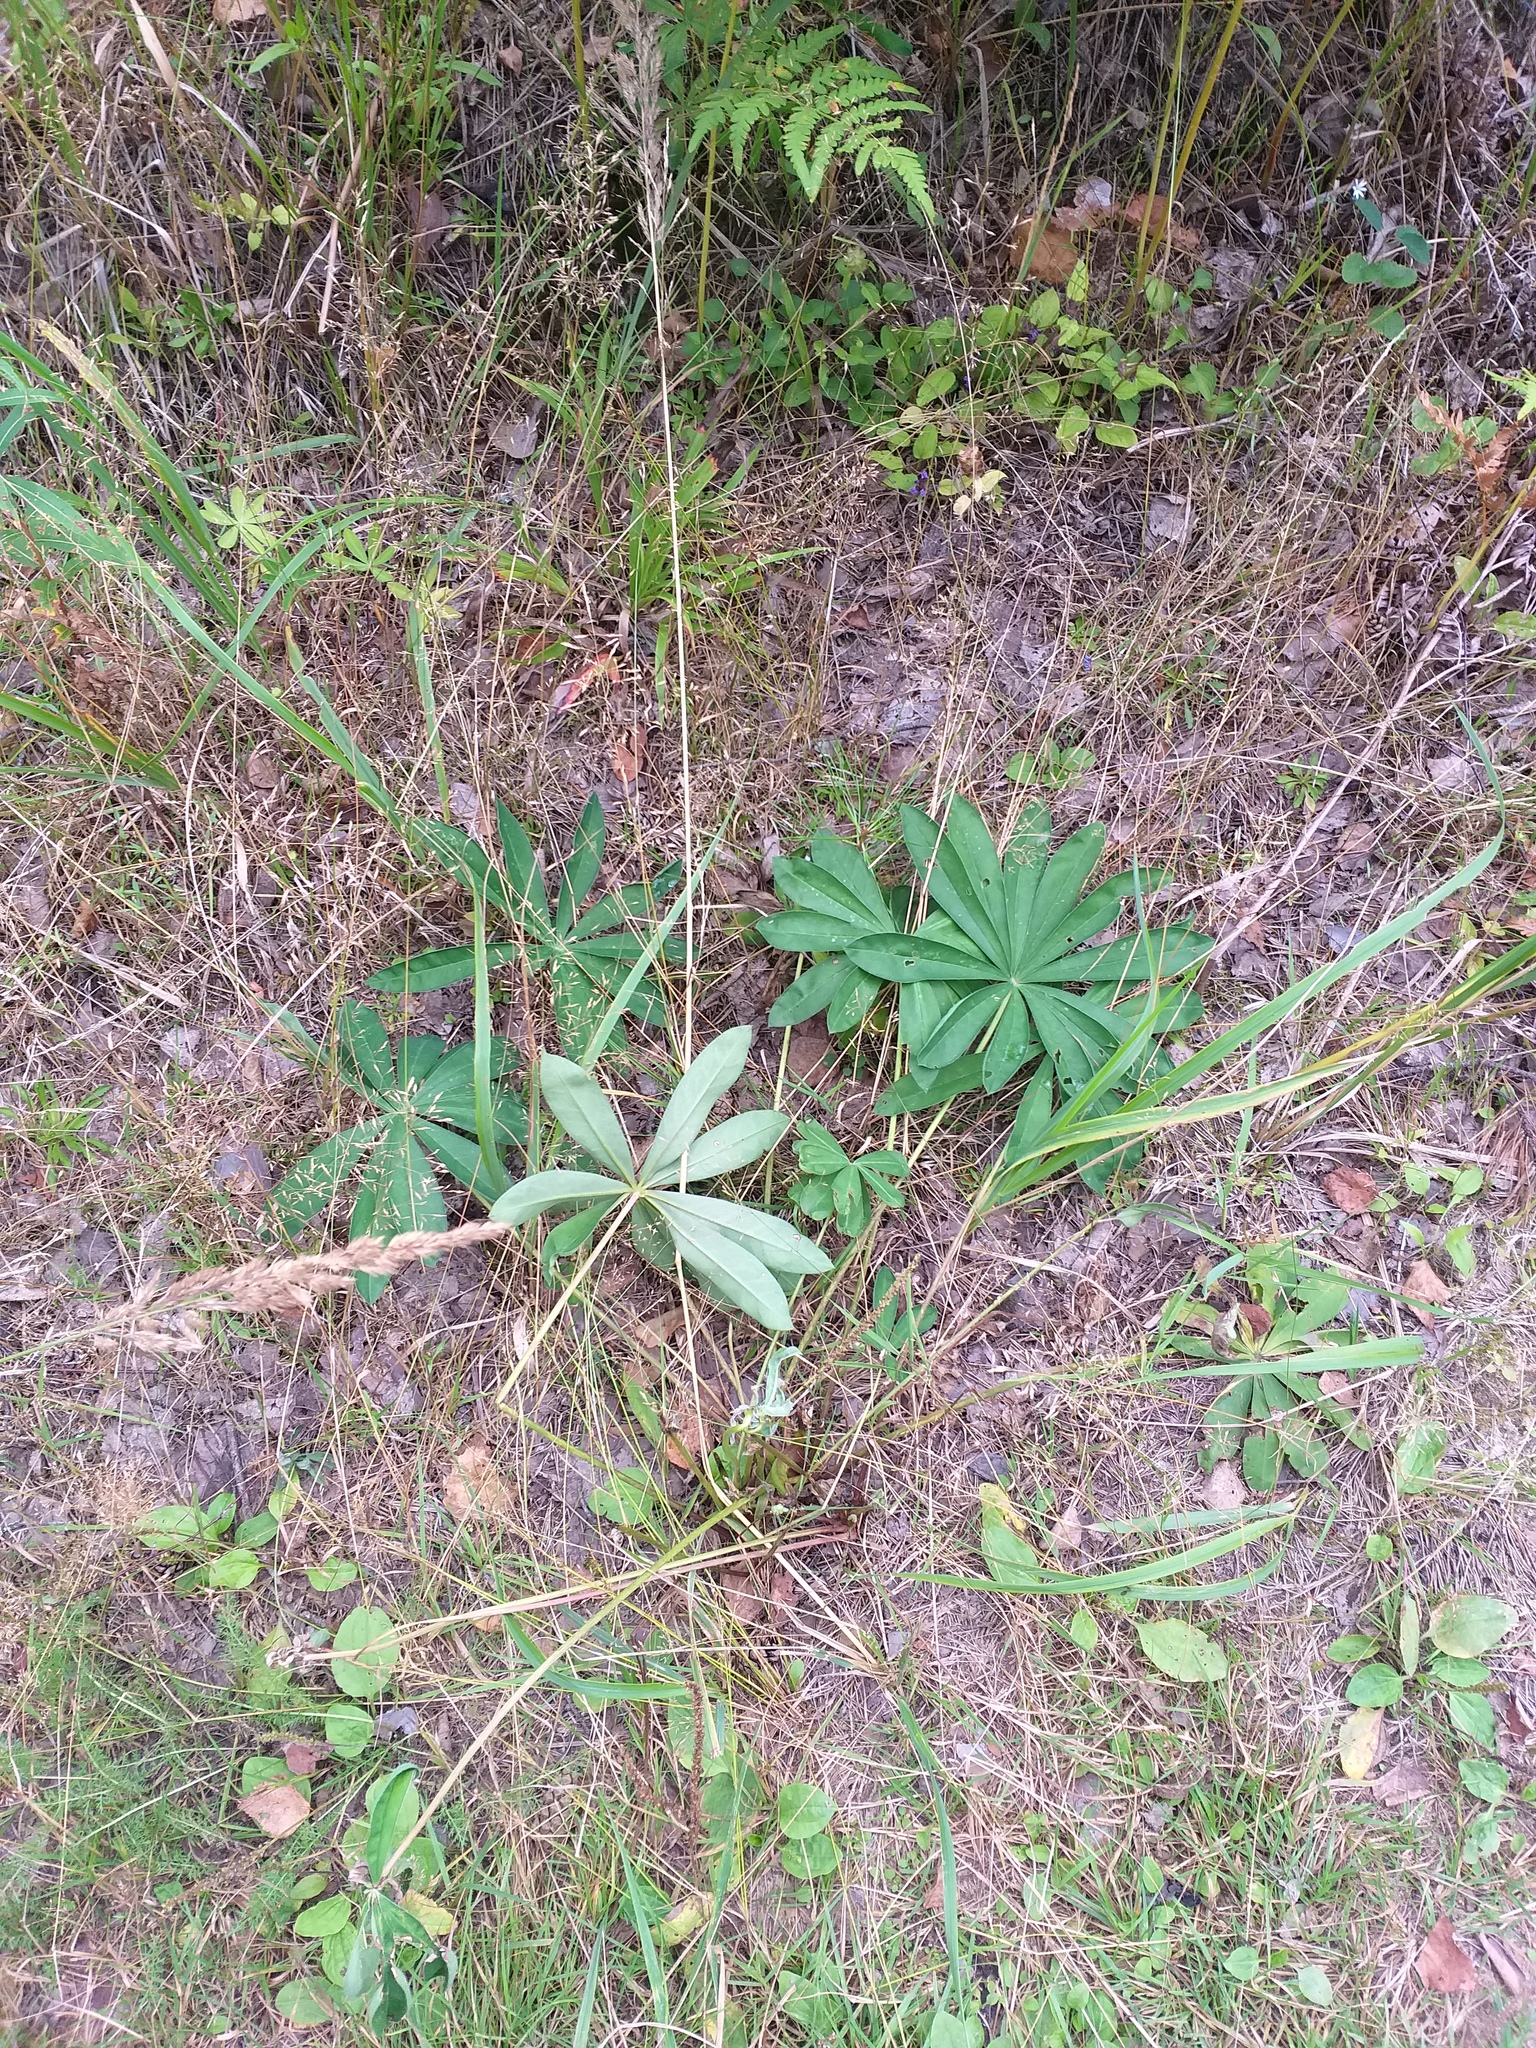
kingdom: Plantae
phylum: Tracheophyta
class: Magnoliopsida
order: Fabales
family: Fabaceae
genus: Lupinus
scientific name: Lupinus polyphyllus
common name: Garden lupin
